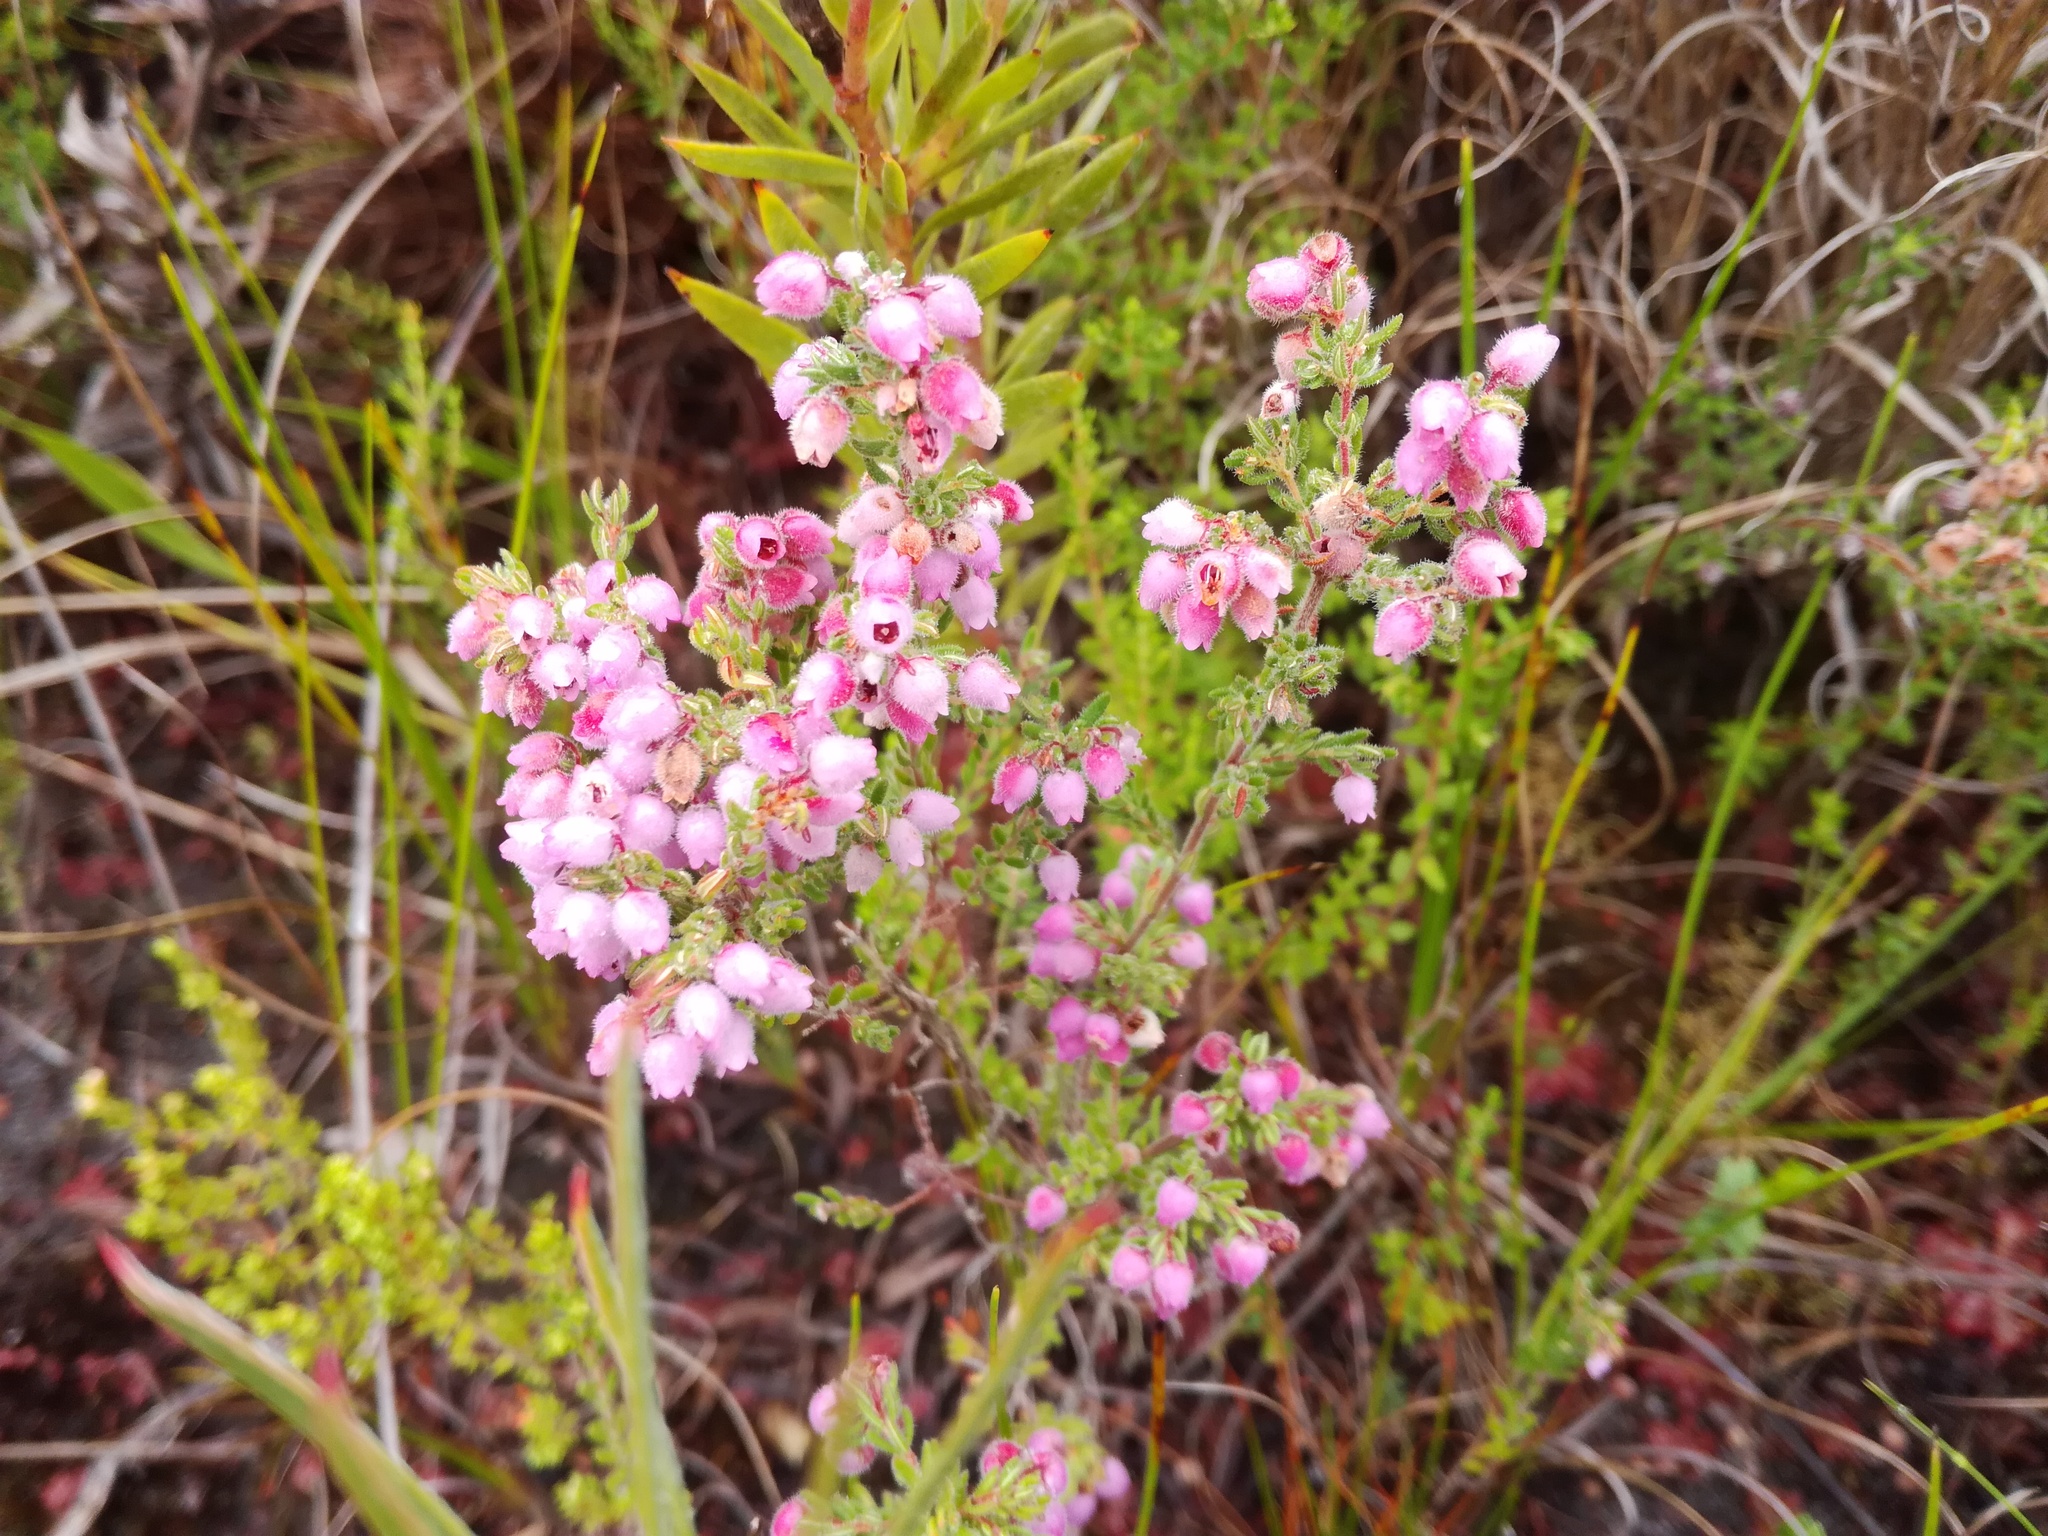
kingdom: Plantae
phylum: Tracheophyta
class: Magnoliopsida
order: Ericales
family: Ericaceae
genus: Erica
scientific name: Erica hirtiflora
